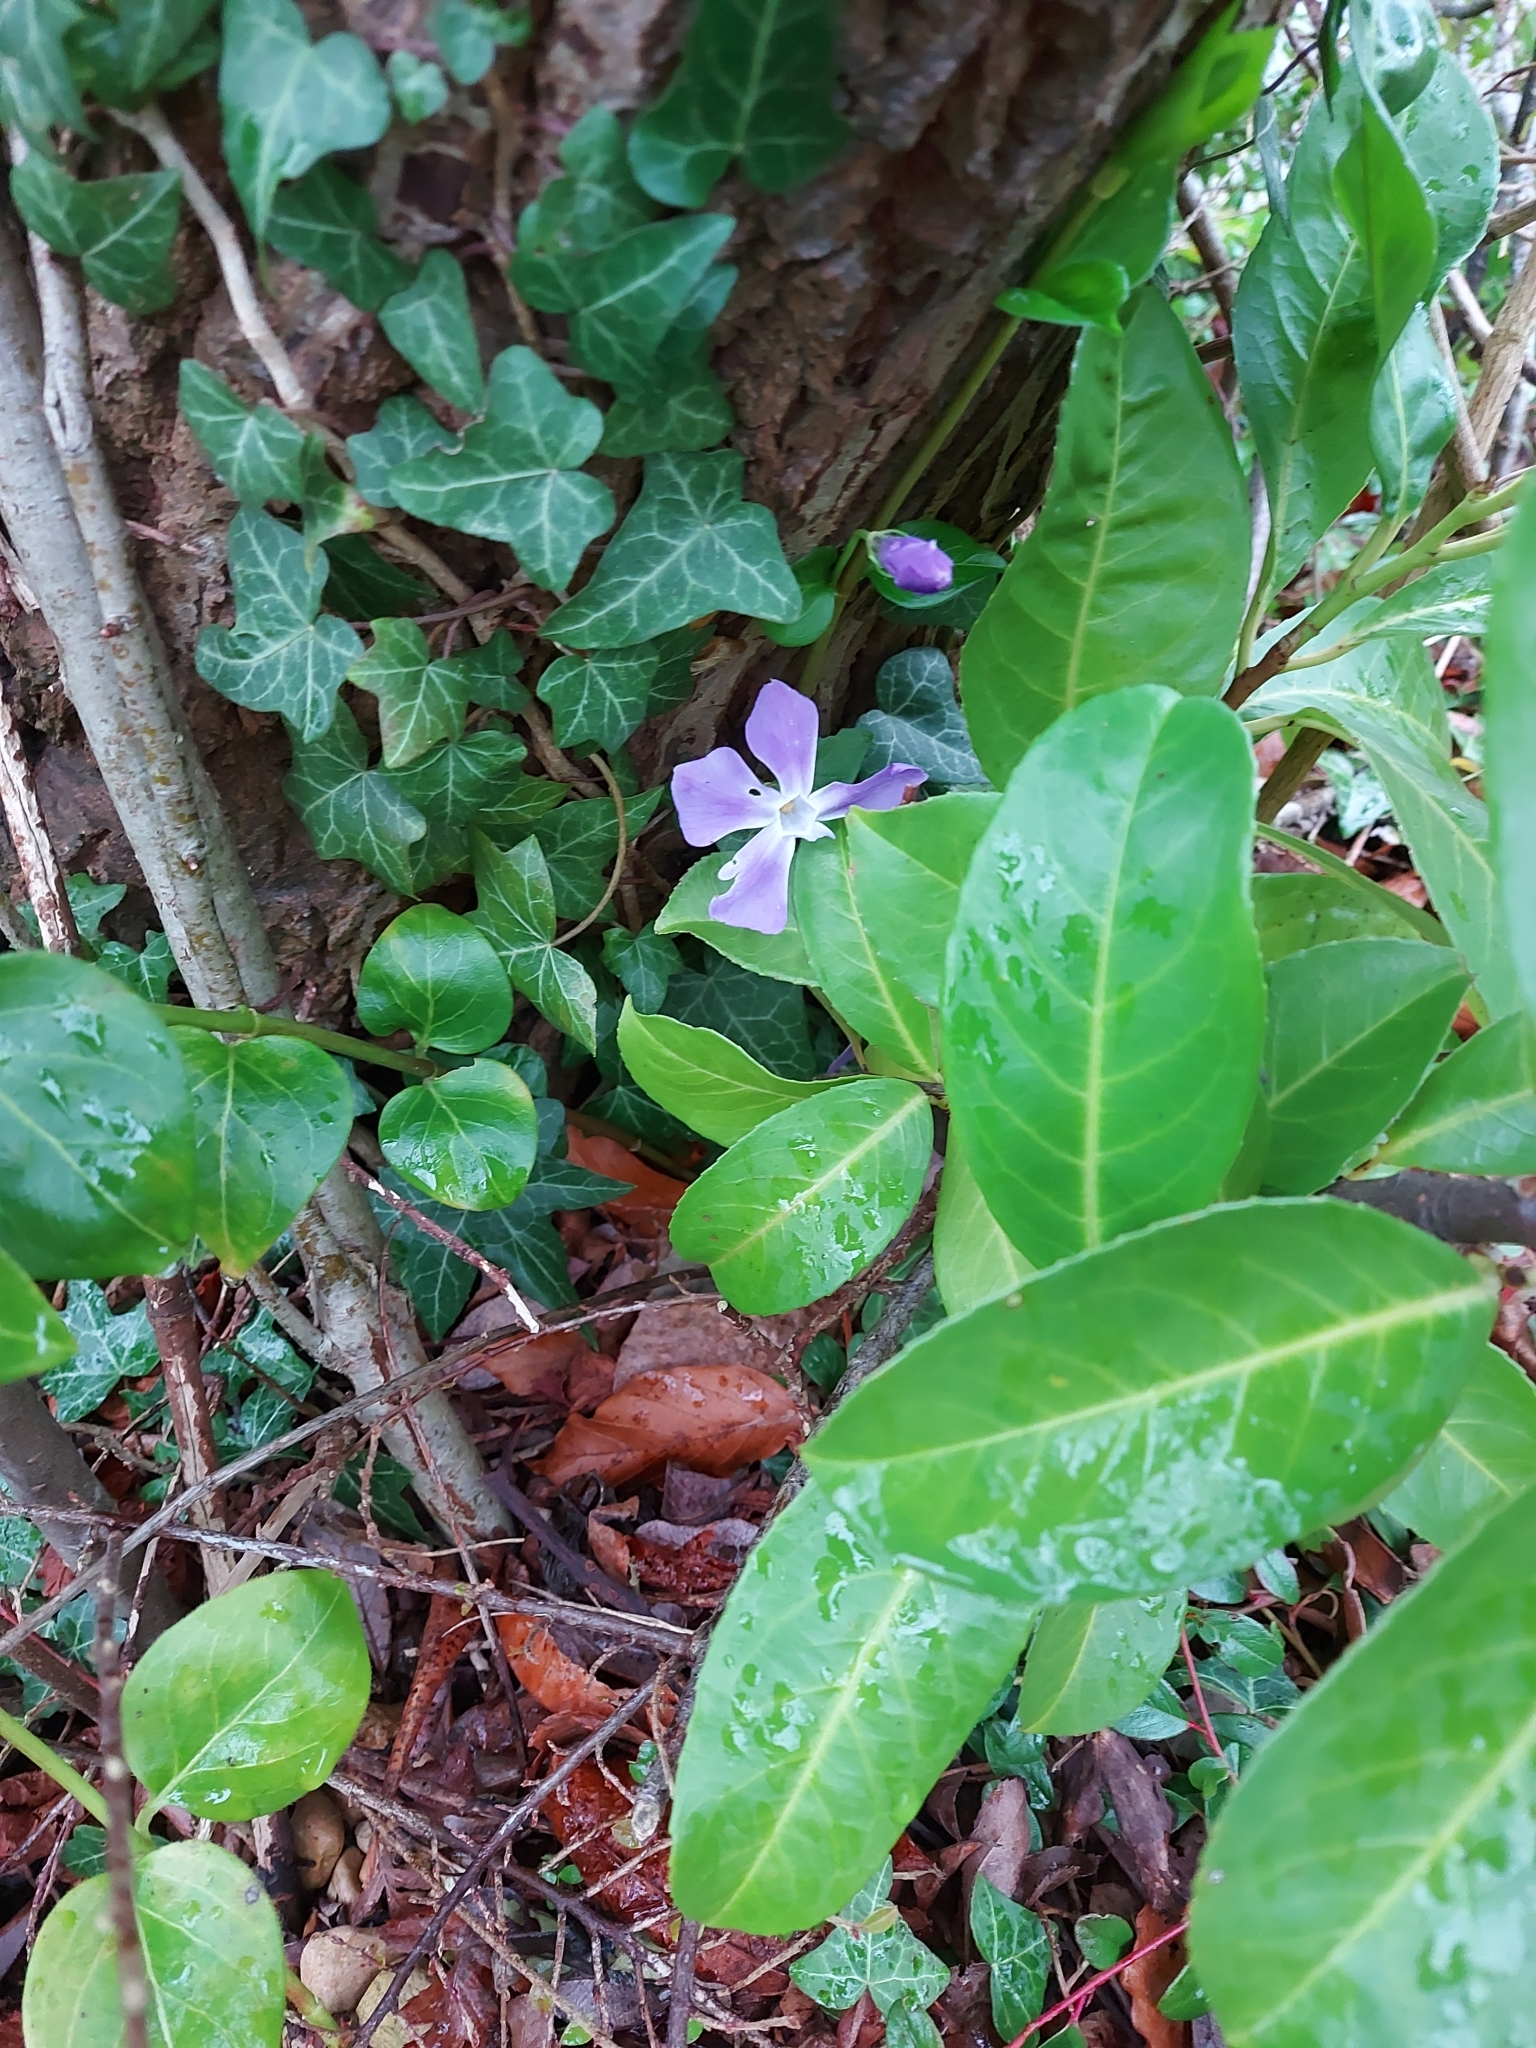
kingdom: Plantae
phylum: Tracheophyta
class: Magnoliopsida
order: Gentianales
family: Apocynaceae
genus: Vinca
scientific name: Vinca major
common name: Greater periwinkle
